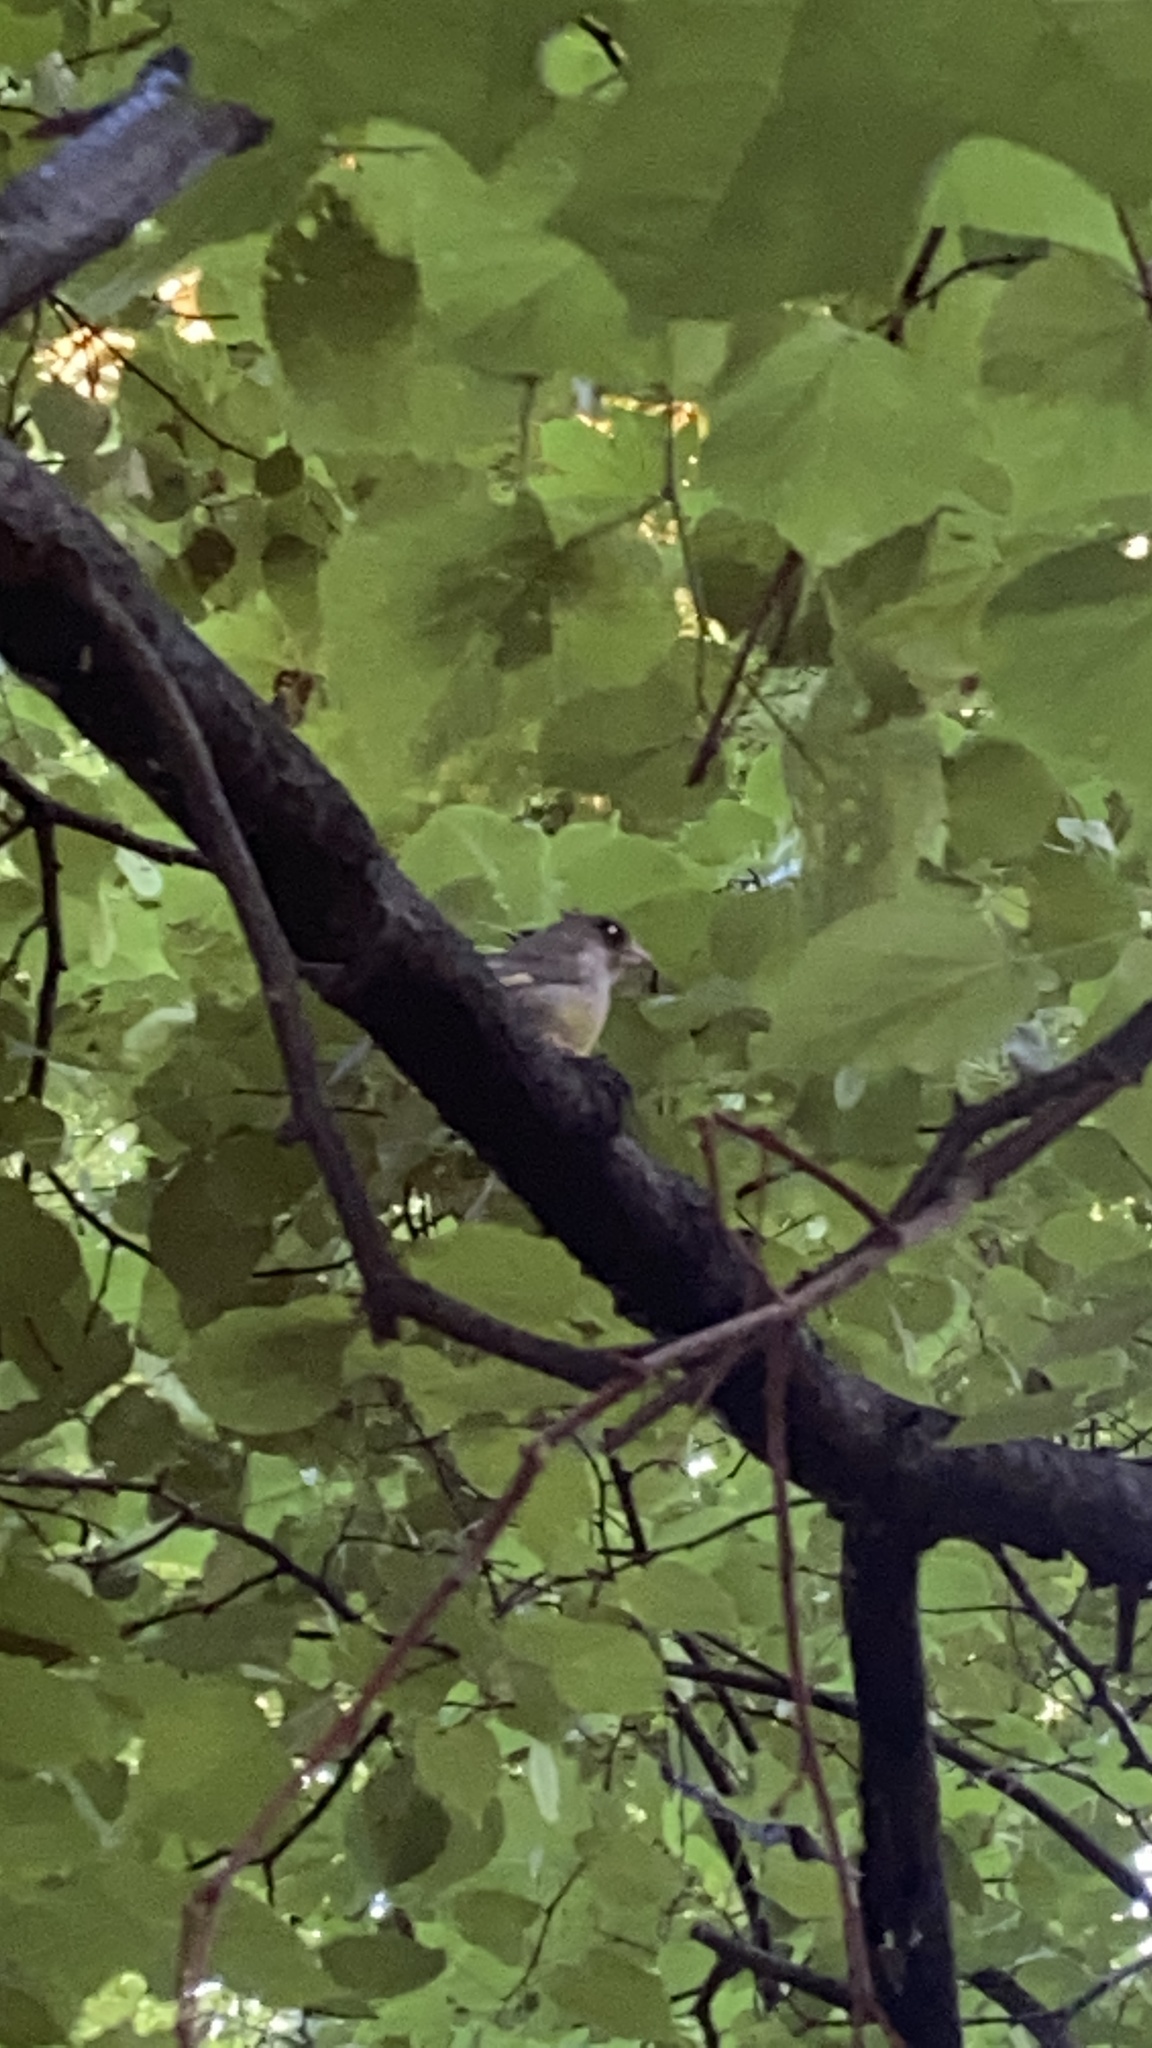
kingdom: Plantae
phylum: Tracheophyta
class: Liliopsida
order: Poales
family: Poaceae
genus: Chloris
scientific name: Chloris chloris
